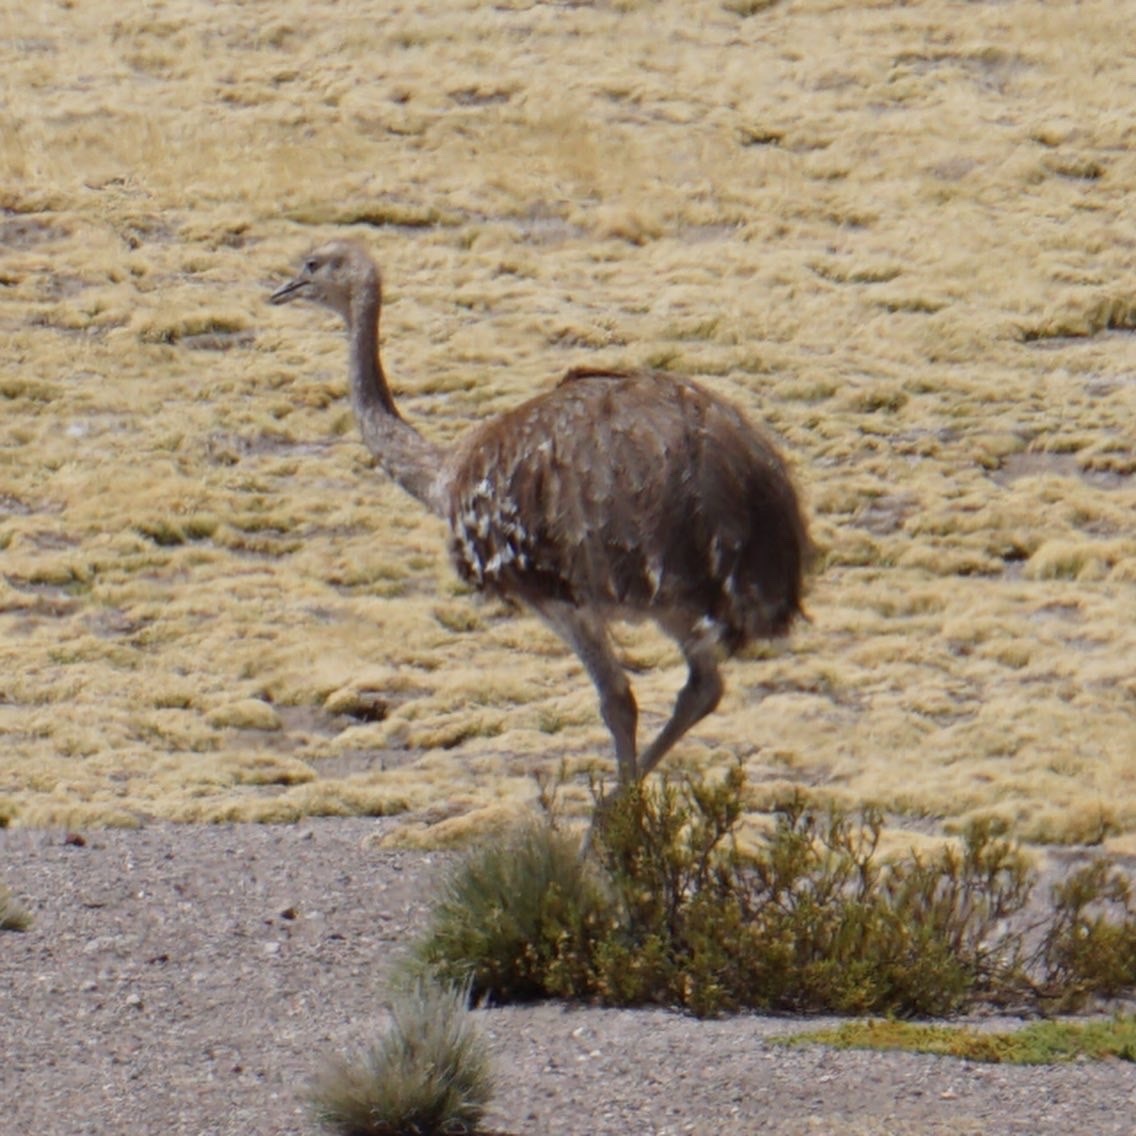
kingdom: Animalia
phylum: Chordata
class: Aves
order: Rheiformes
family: Rheidae
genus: Rhea
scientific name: Rhea pennata
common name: Lesser rhea
